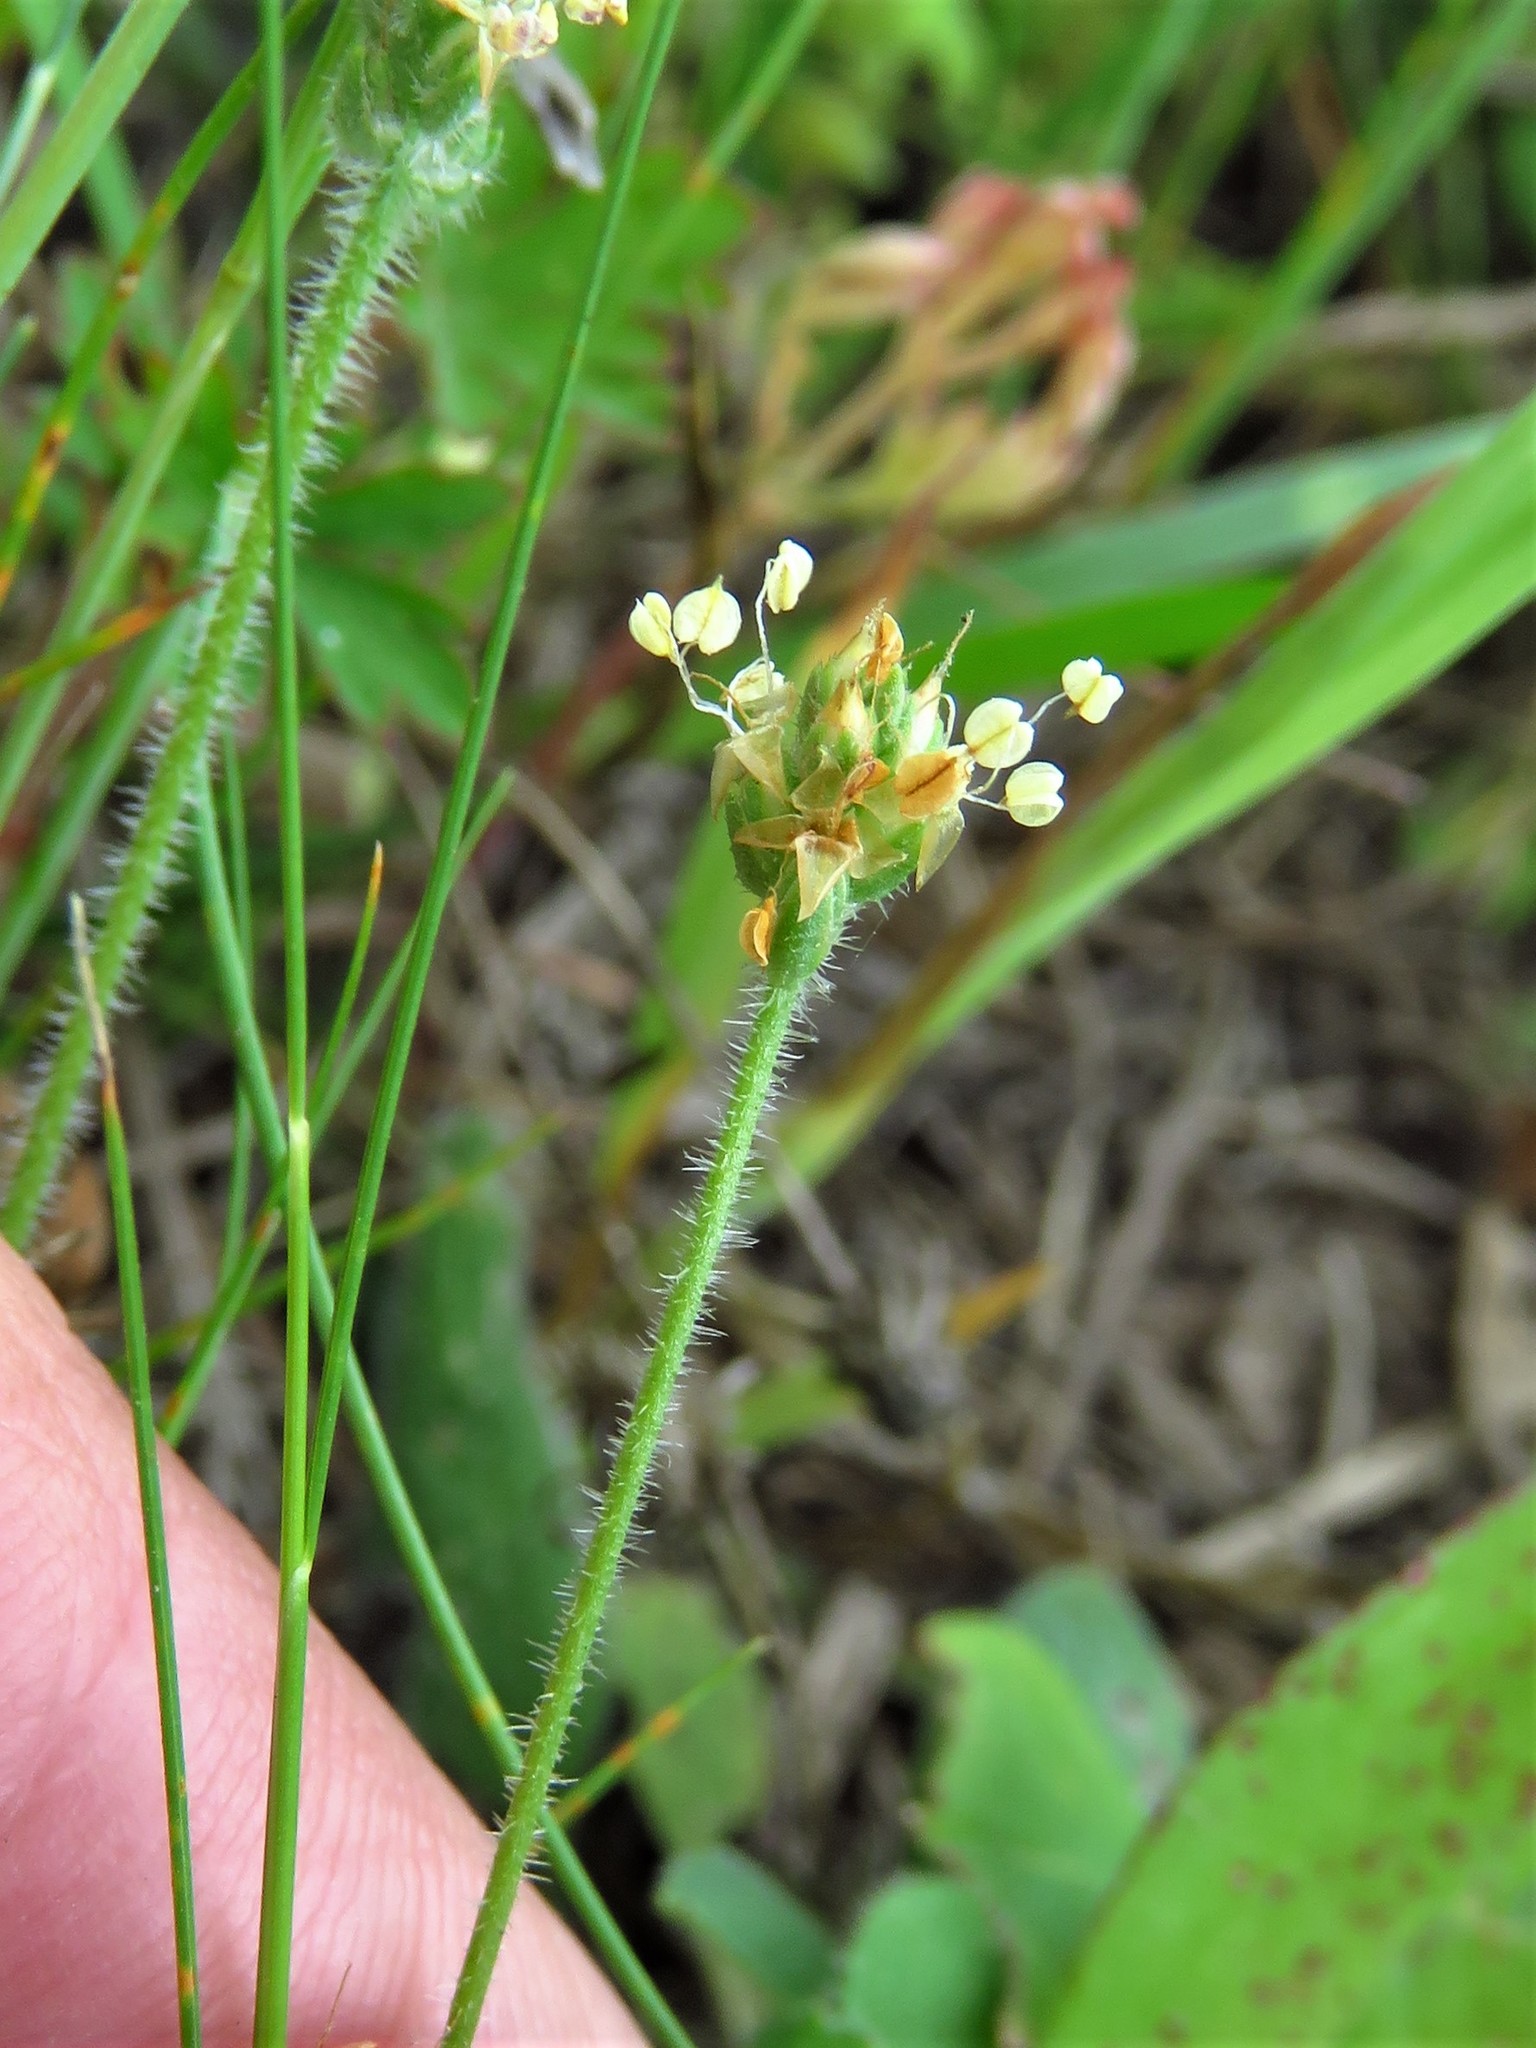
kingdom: Plantae
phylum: Tracheophyta
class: Magnoliopsida
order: Lamiales
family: Plantaginaceae
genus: Plantago
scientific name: Plantago virginica
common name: Hoary plantain
